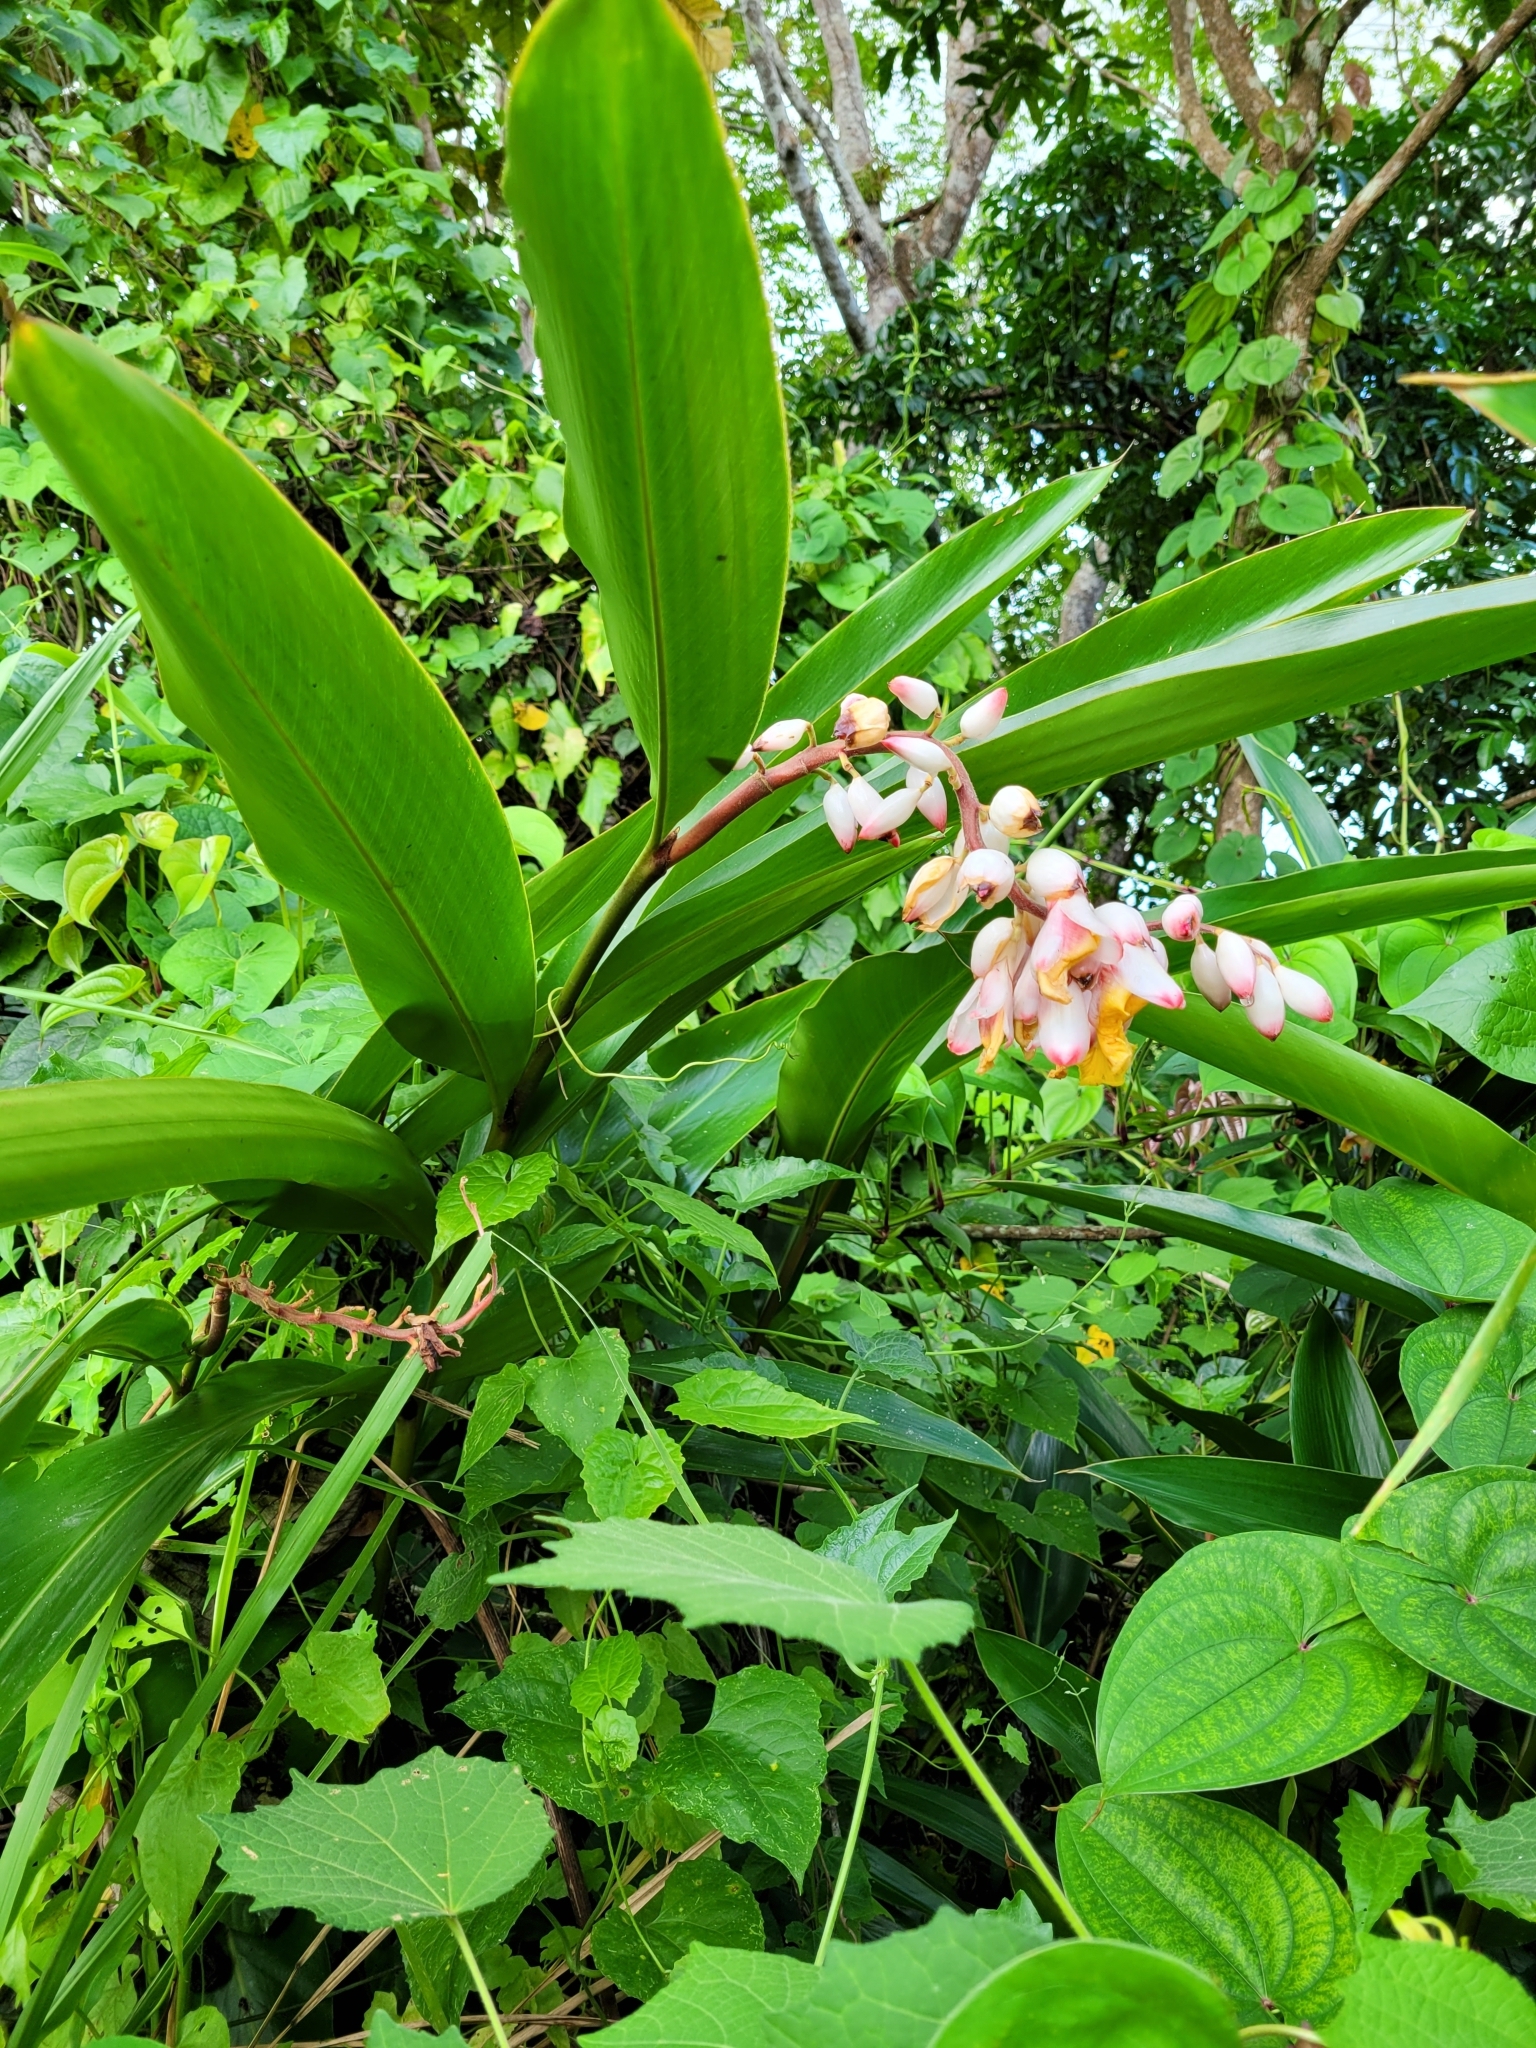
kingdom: Plantae
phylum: Tracheophyta
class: Liliopsida
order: Zingiberales
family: Zingiberaceae
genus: Alpinia
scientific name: Alpinia zerumbet
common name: Shellplant
